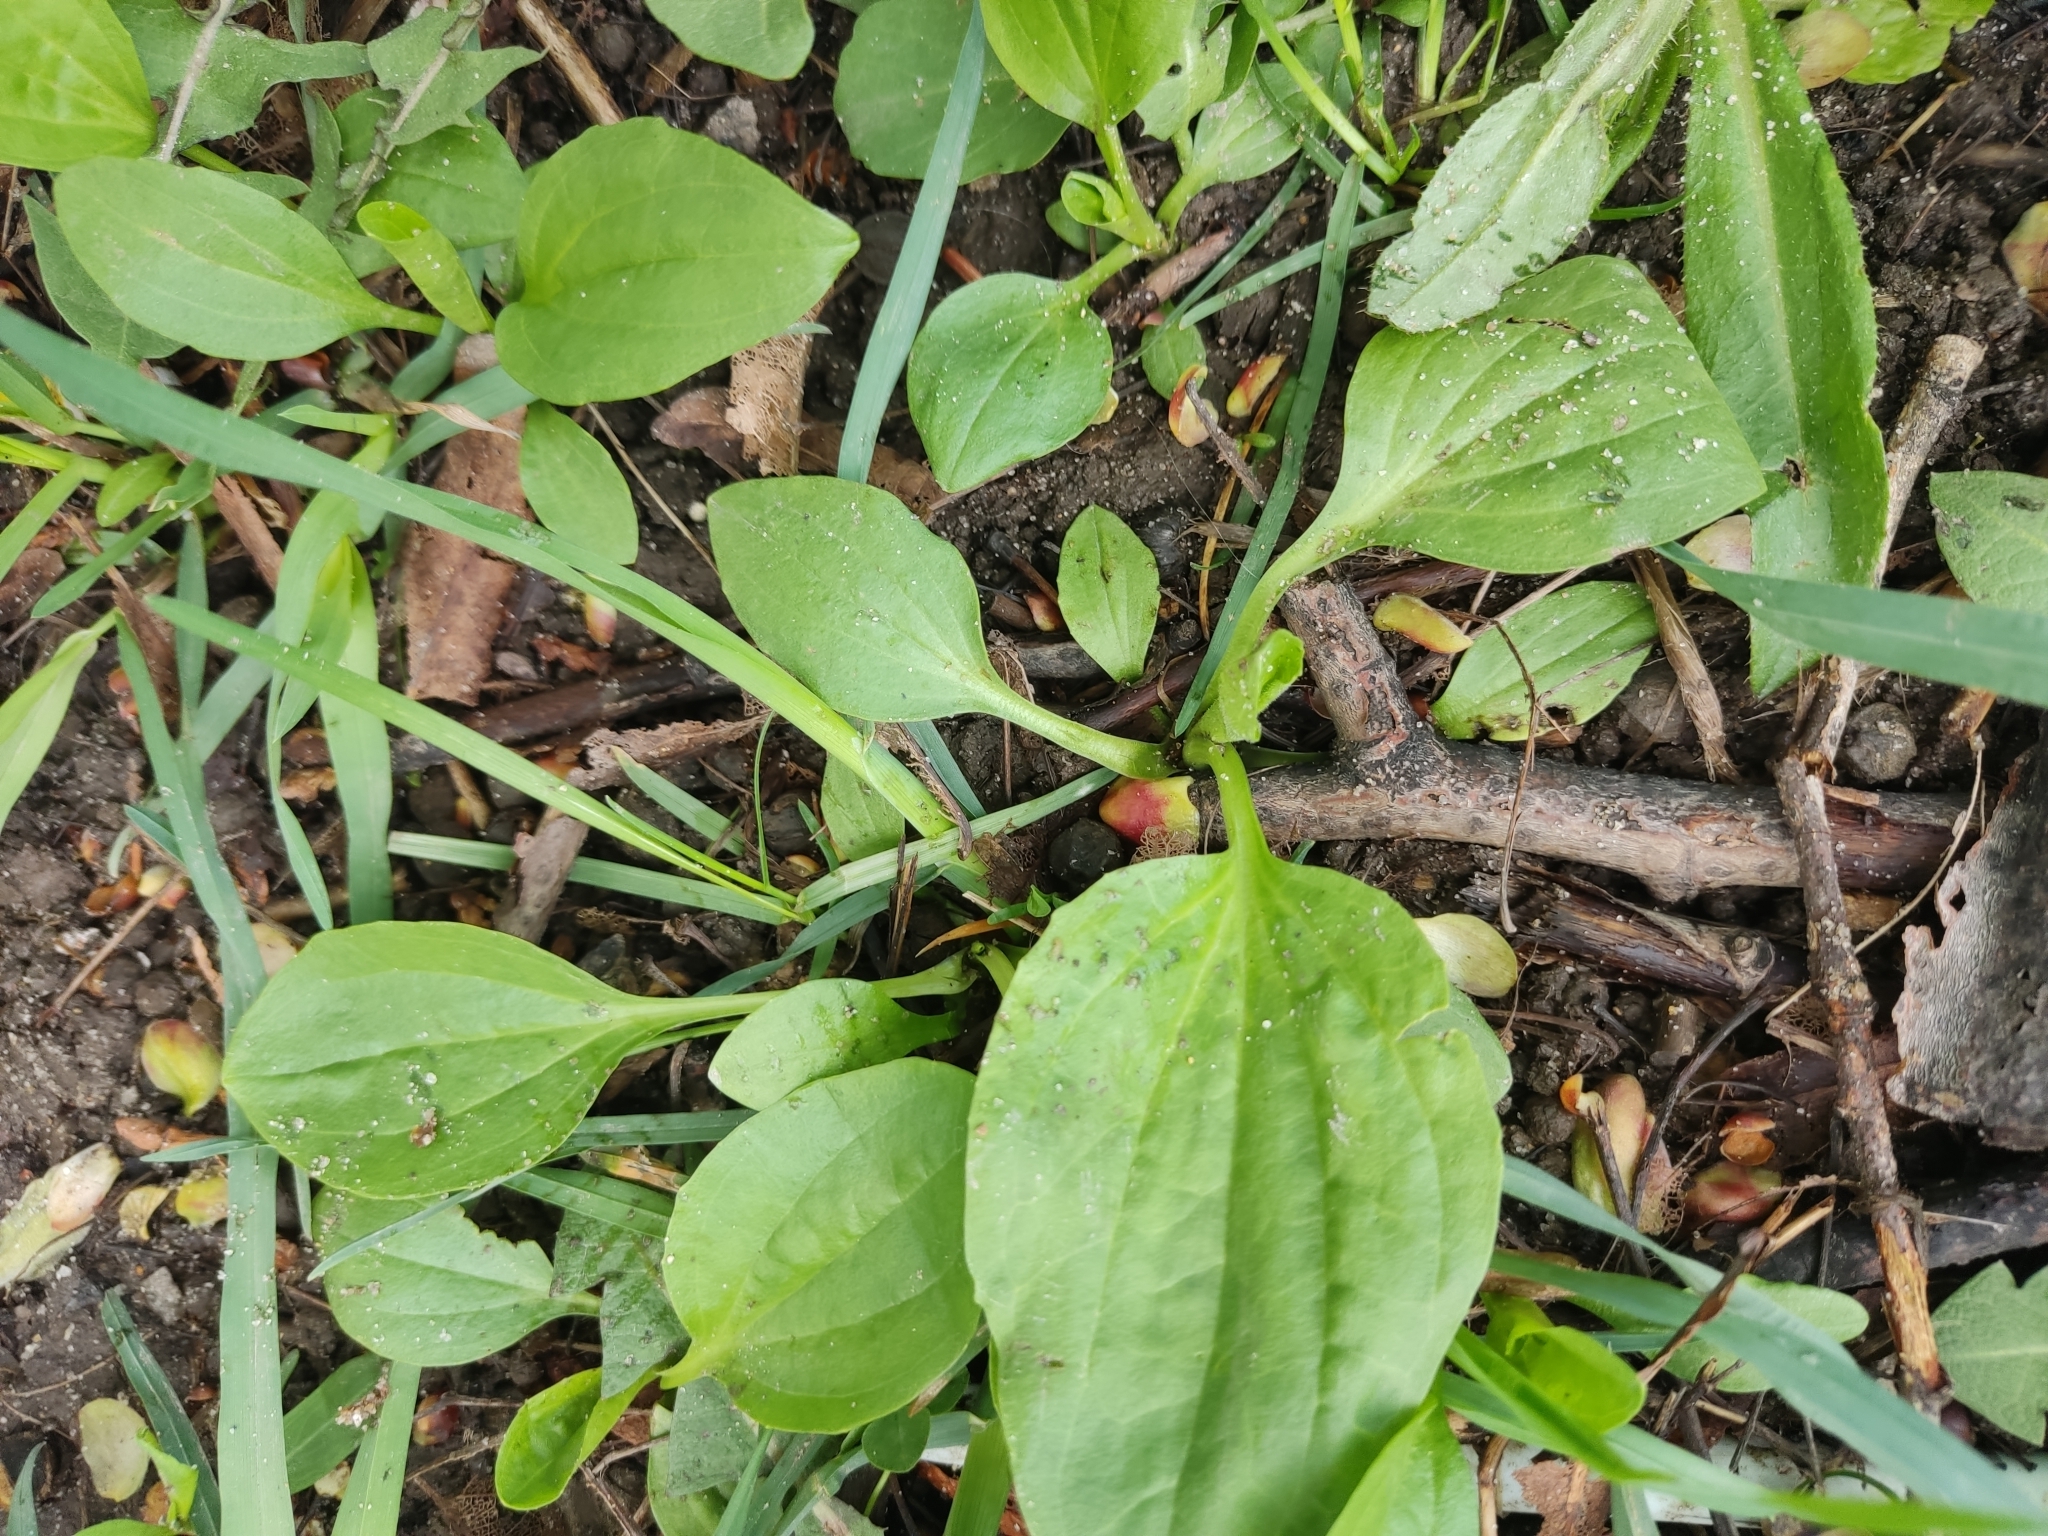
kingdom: Plantae
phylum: Tracheophyta
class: Magnoliopsida
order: Lamiales
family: Plantaginaceae
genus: Plantago
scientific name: Plantago major
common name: Common plantain
